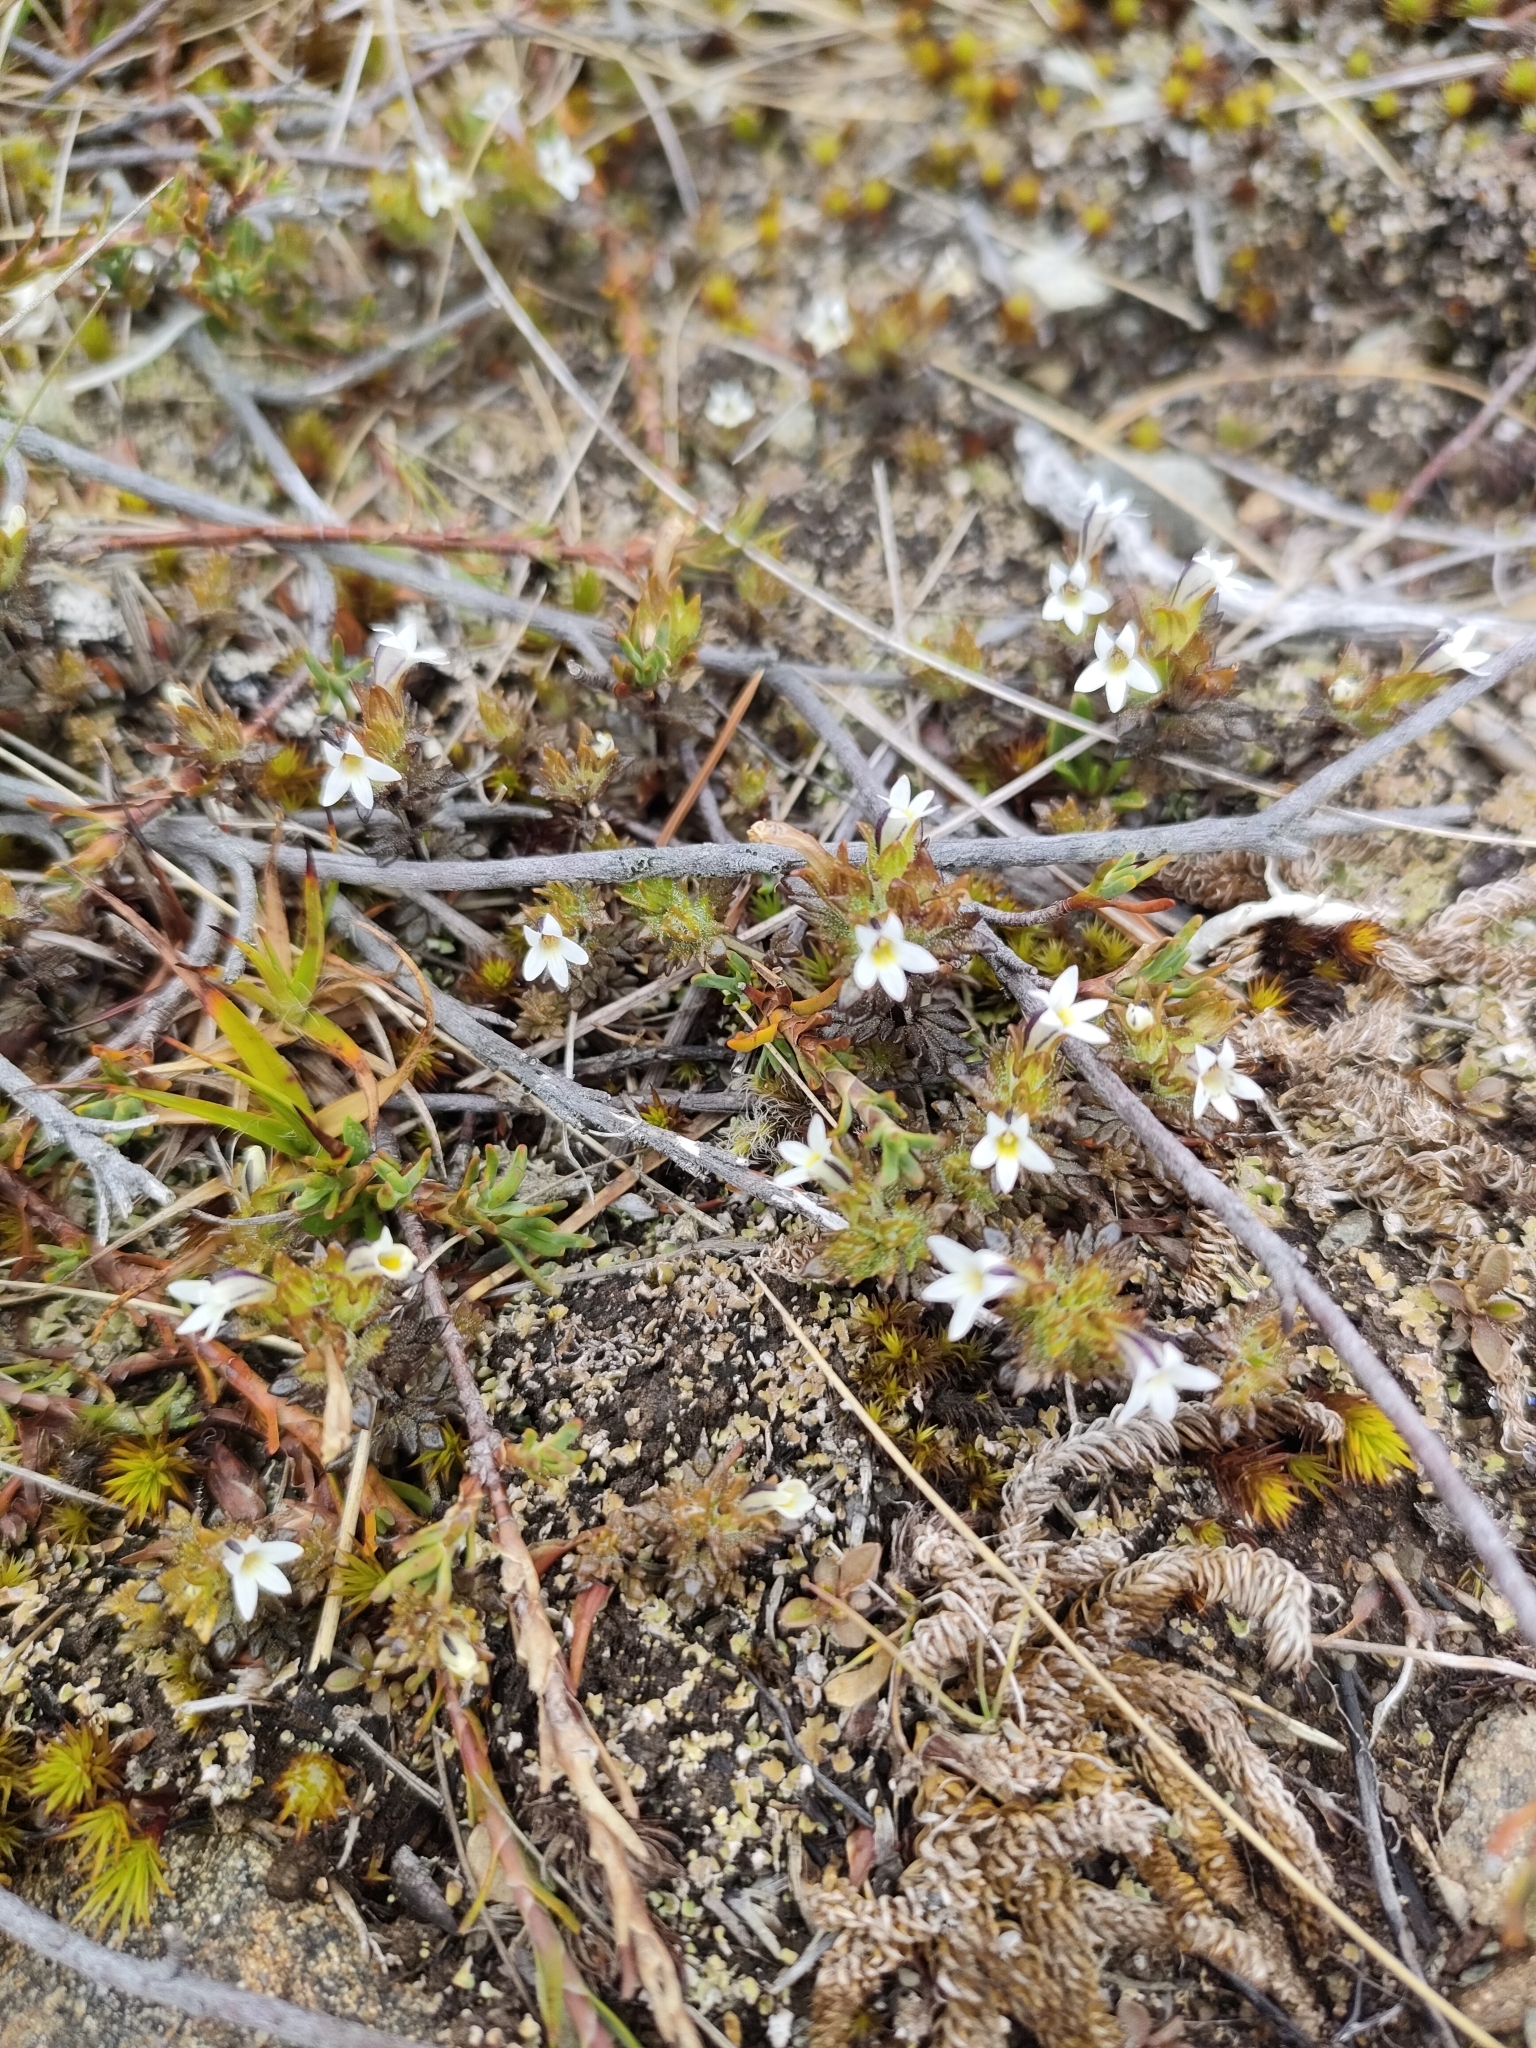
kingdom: Plantae
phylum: Tracheophyta
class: Magnoliopsida
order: Lamiales
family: Orobanchaceae
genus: Euphrasia
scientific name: Euphrasia zelandica
